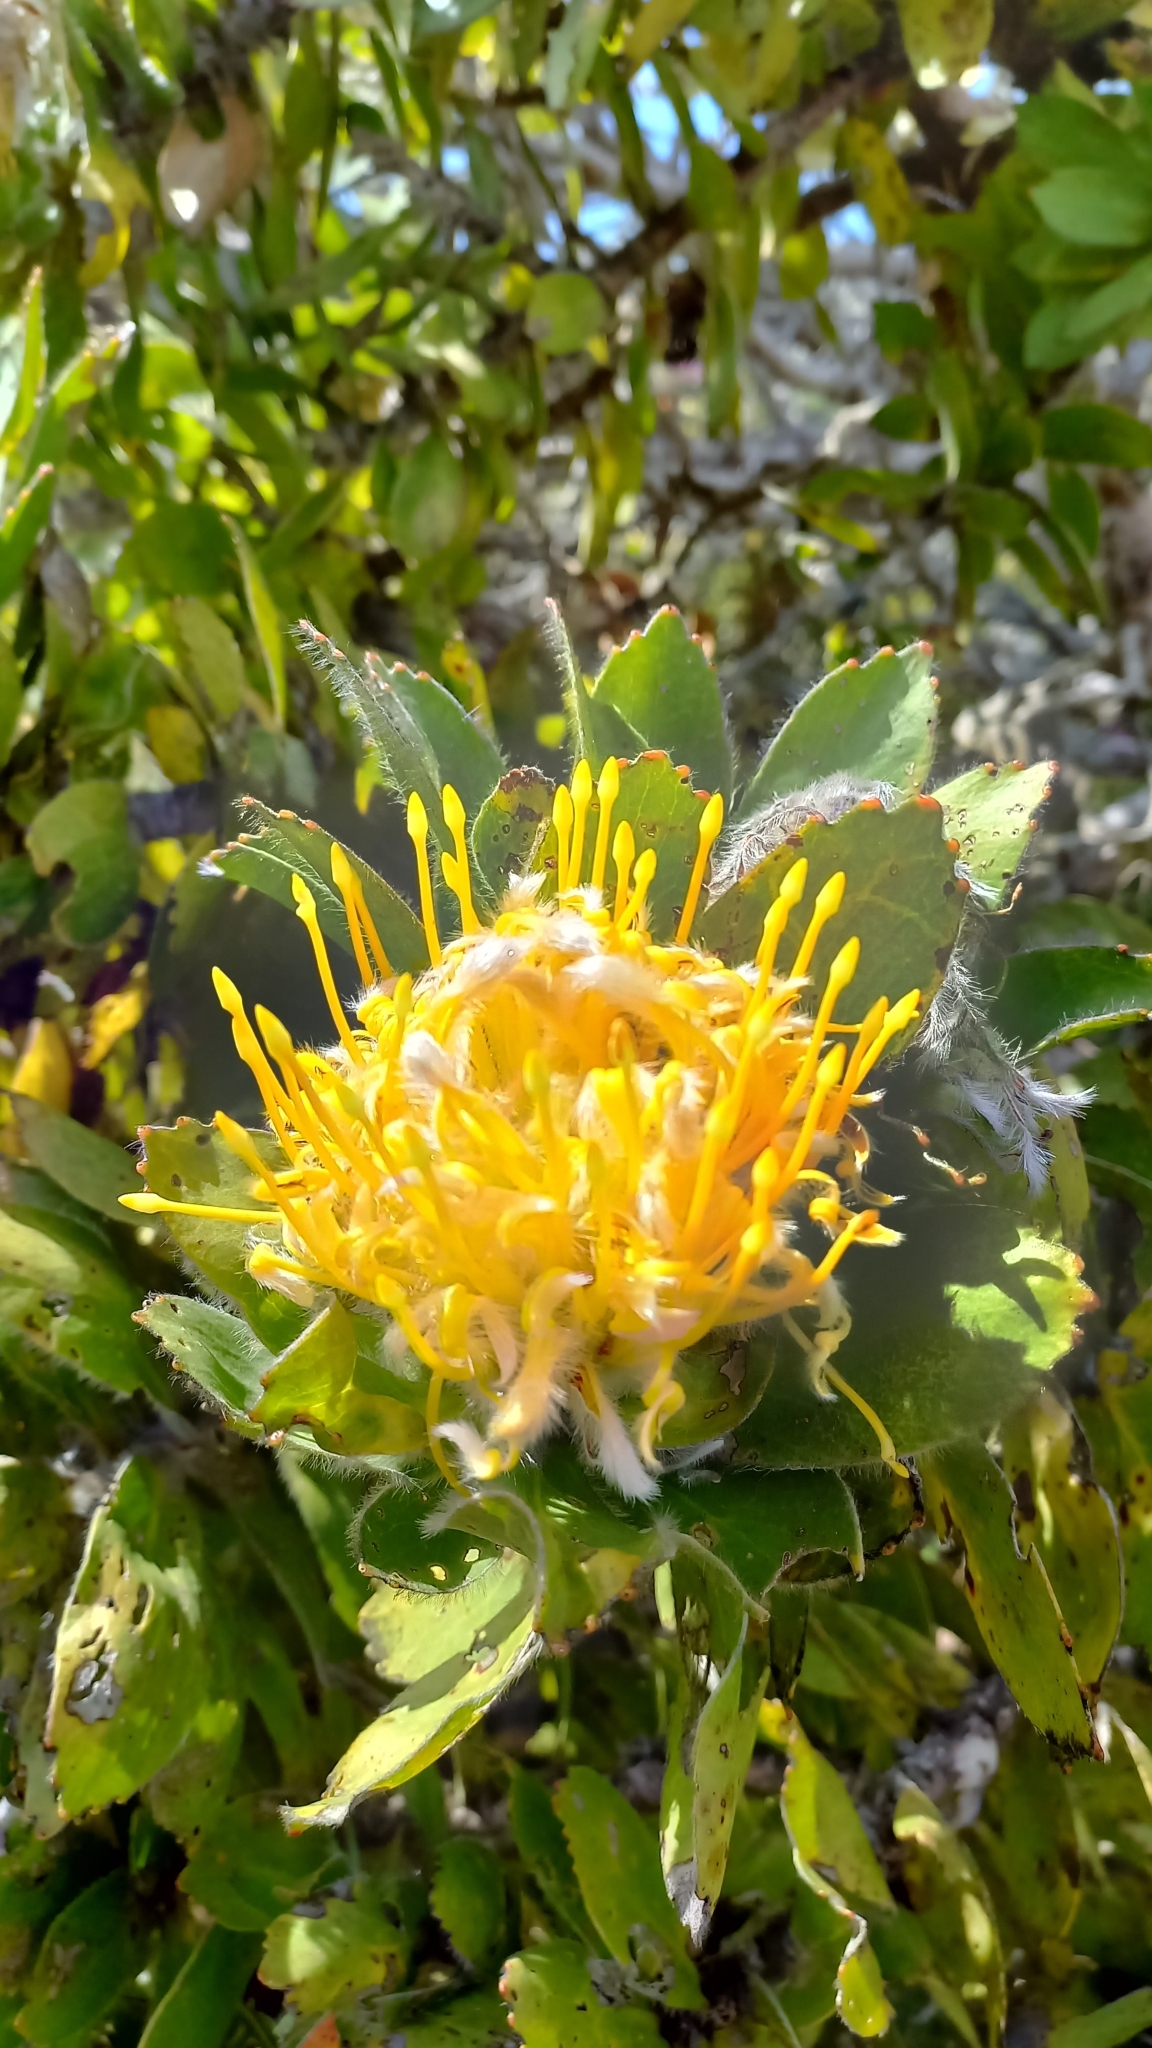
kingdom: Plantae
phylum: Tracheophyta
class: Magnoliopsida
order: Proteales
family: Proteaceae
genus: Leucospermum
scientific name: Leucospermum conocarpodendron
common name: Tree pincushion
